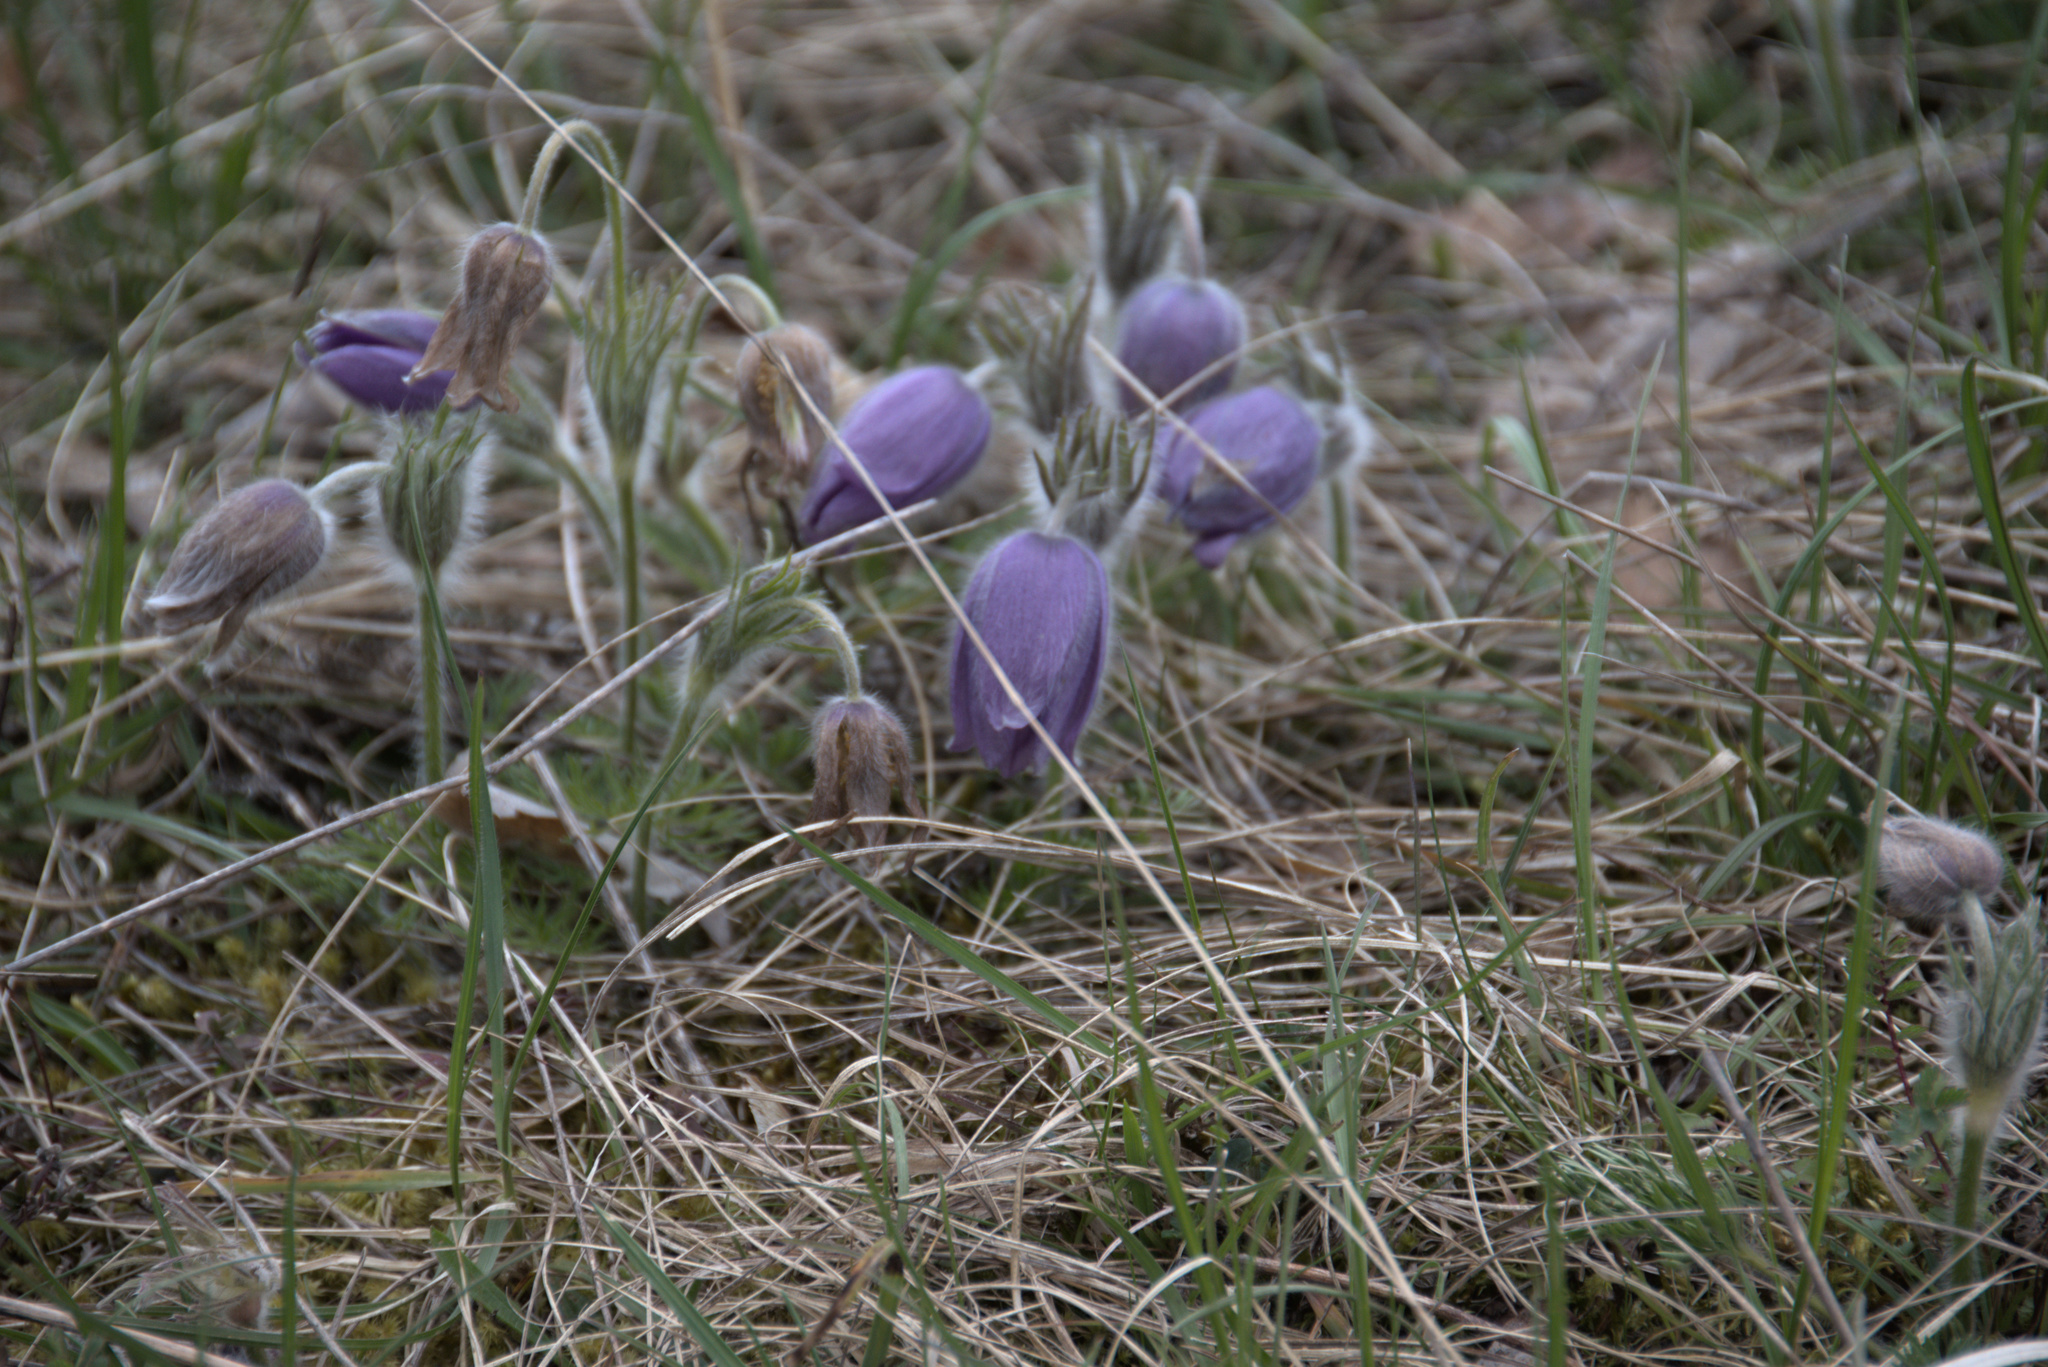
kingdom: Plantae
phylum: Tracheophyta
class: Magnoliopsida
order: Ranunculales
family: Ranunculaceae
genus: Pulsatilla
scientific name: Pulsatilla vulgaris
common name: Pasqueflower
